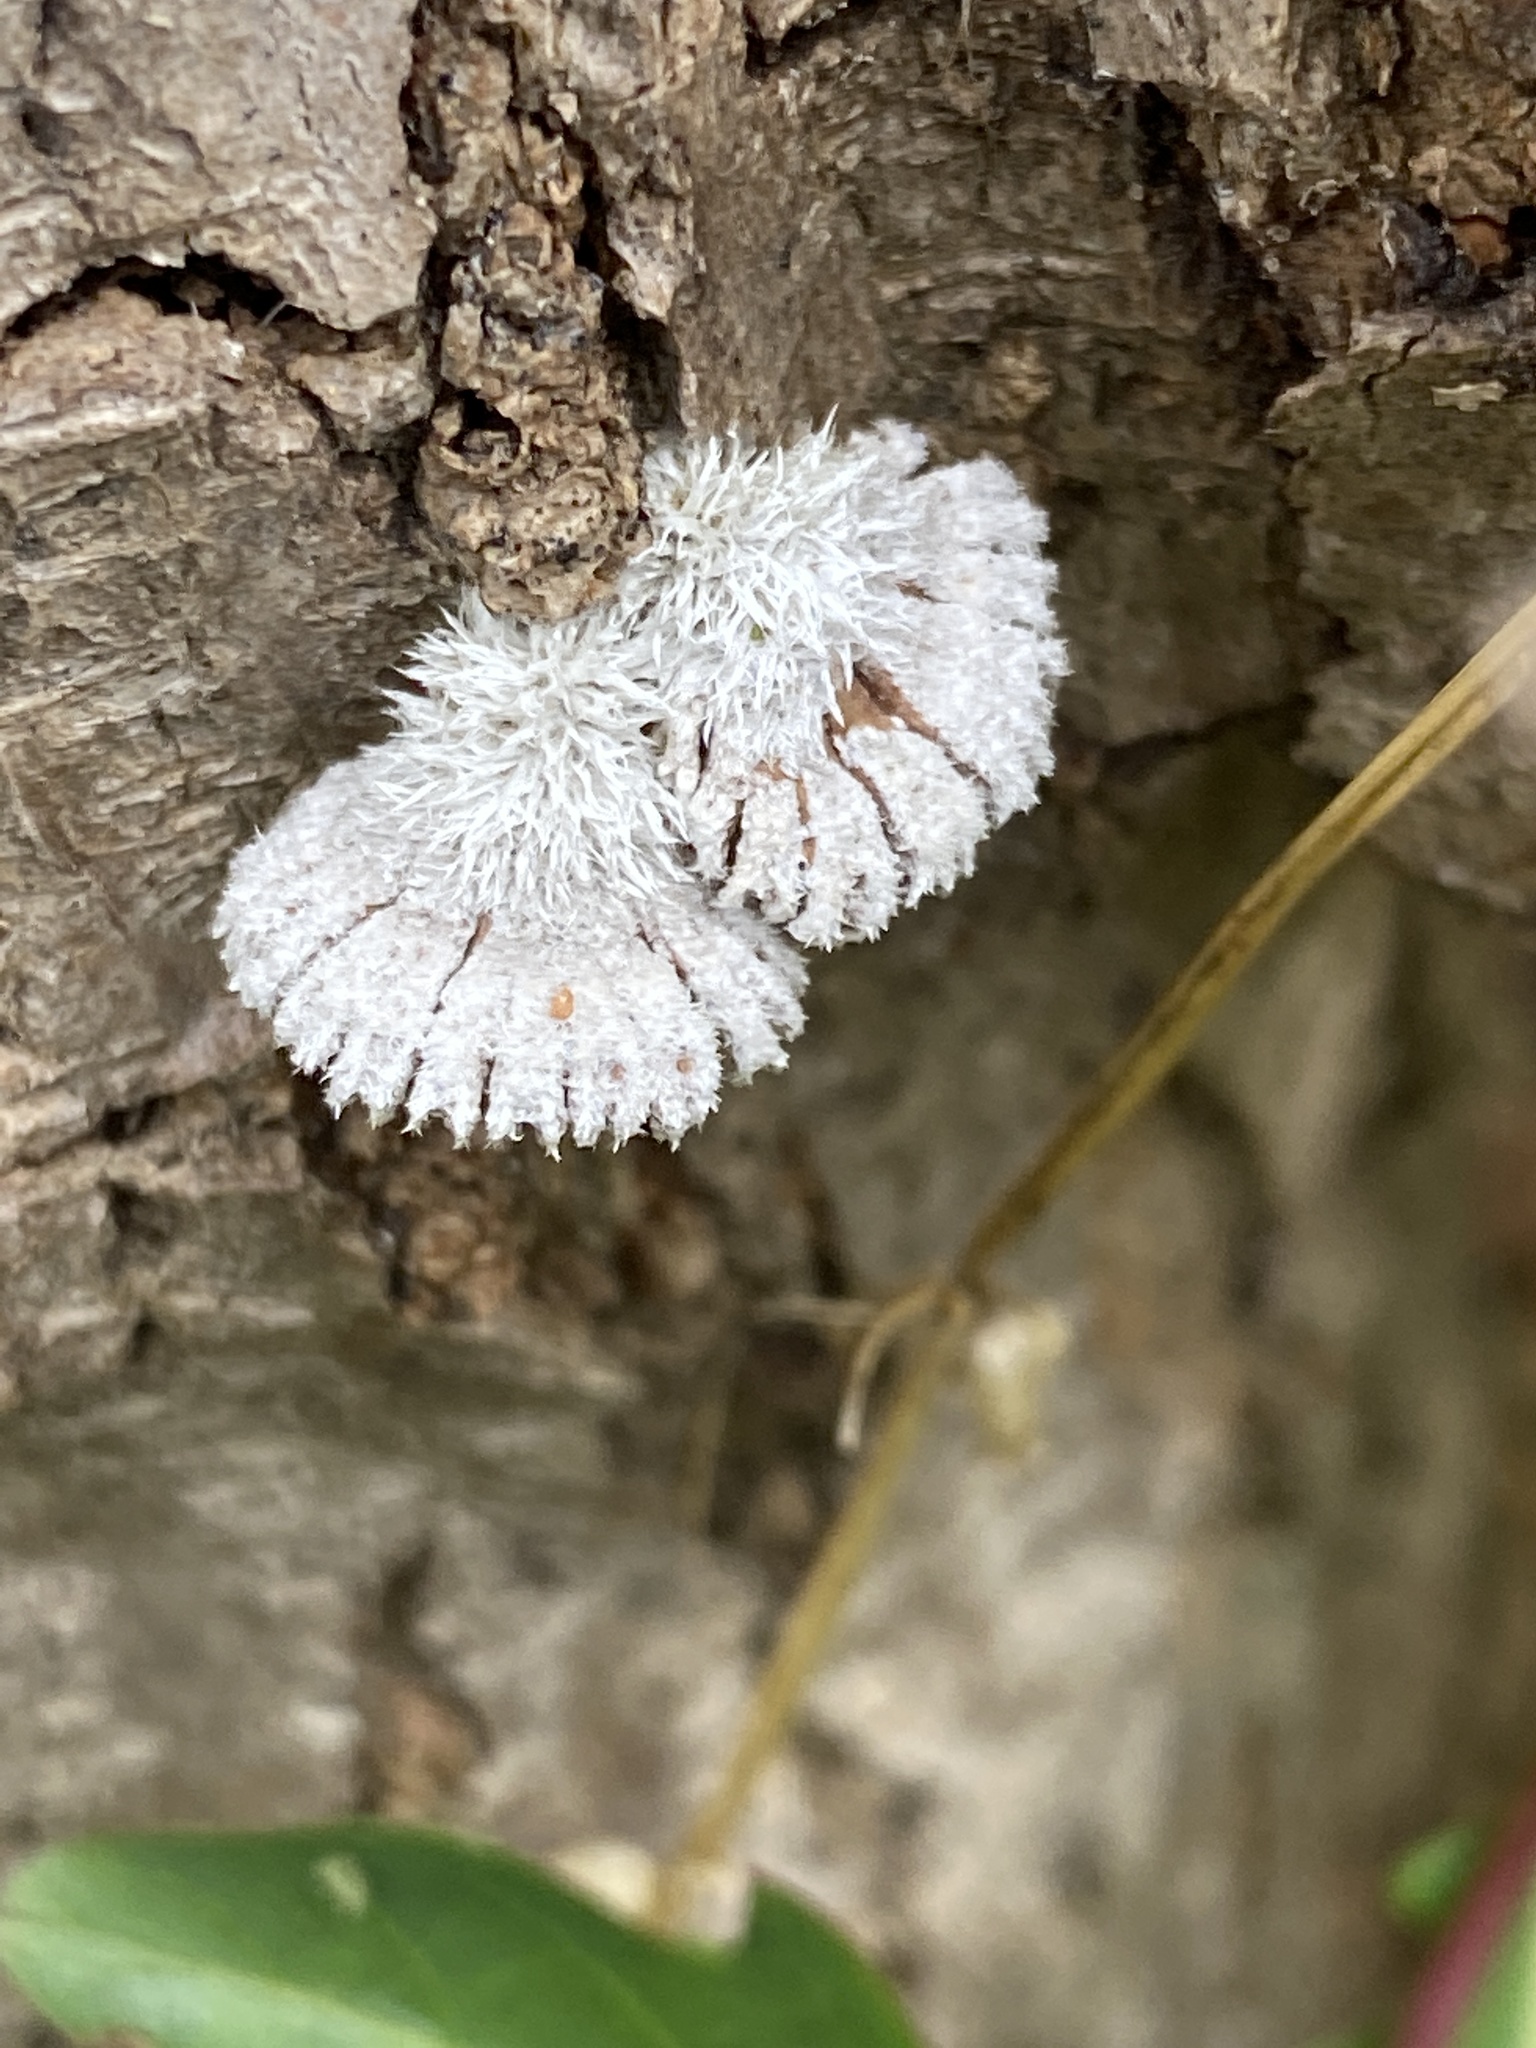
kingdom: Fungi
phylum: Basidiomycota
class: Agaricomycetes
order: Agaricales
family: Schizophyllaceae
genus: Schizophyllum
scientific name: Schizophyllum commune
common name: Common porecrust
